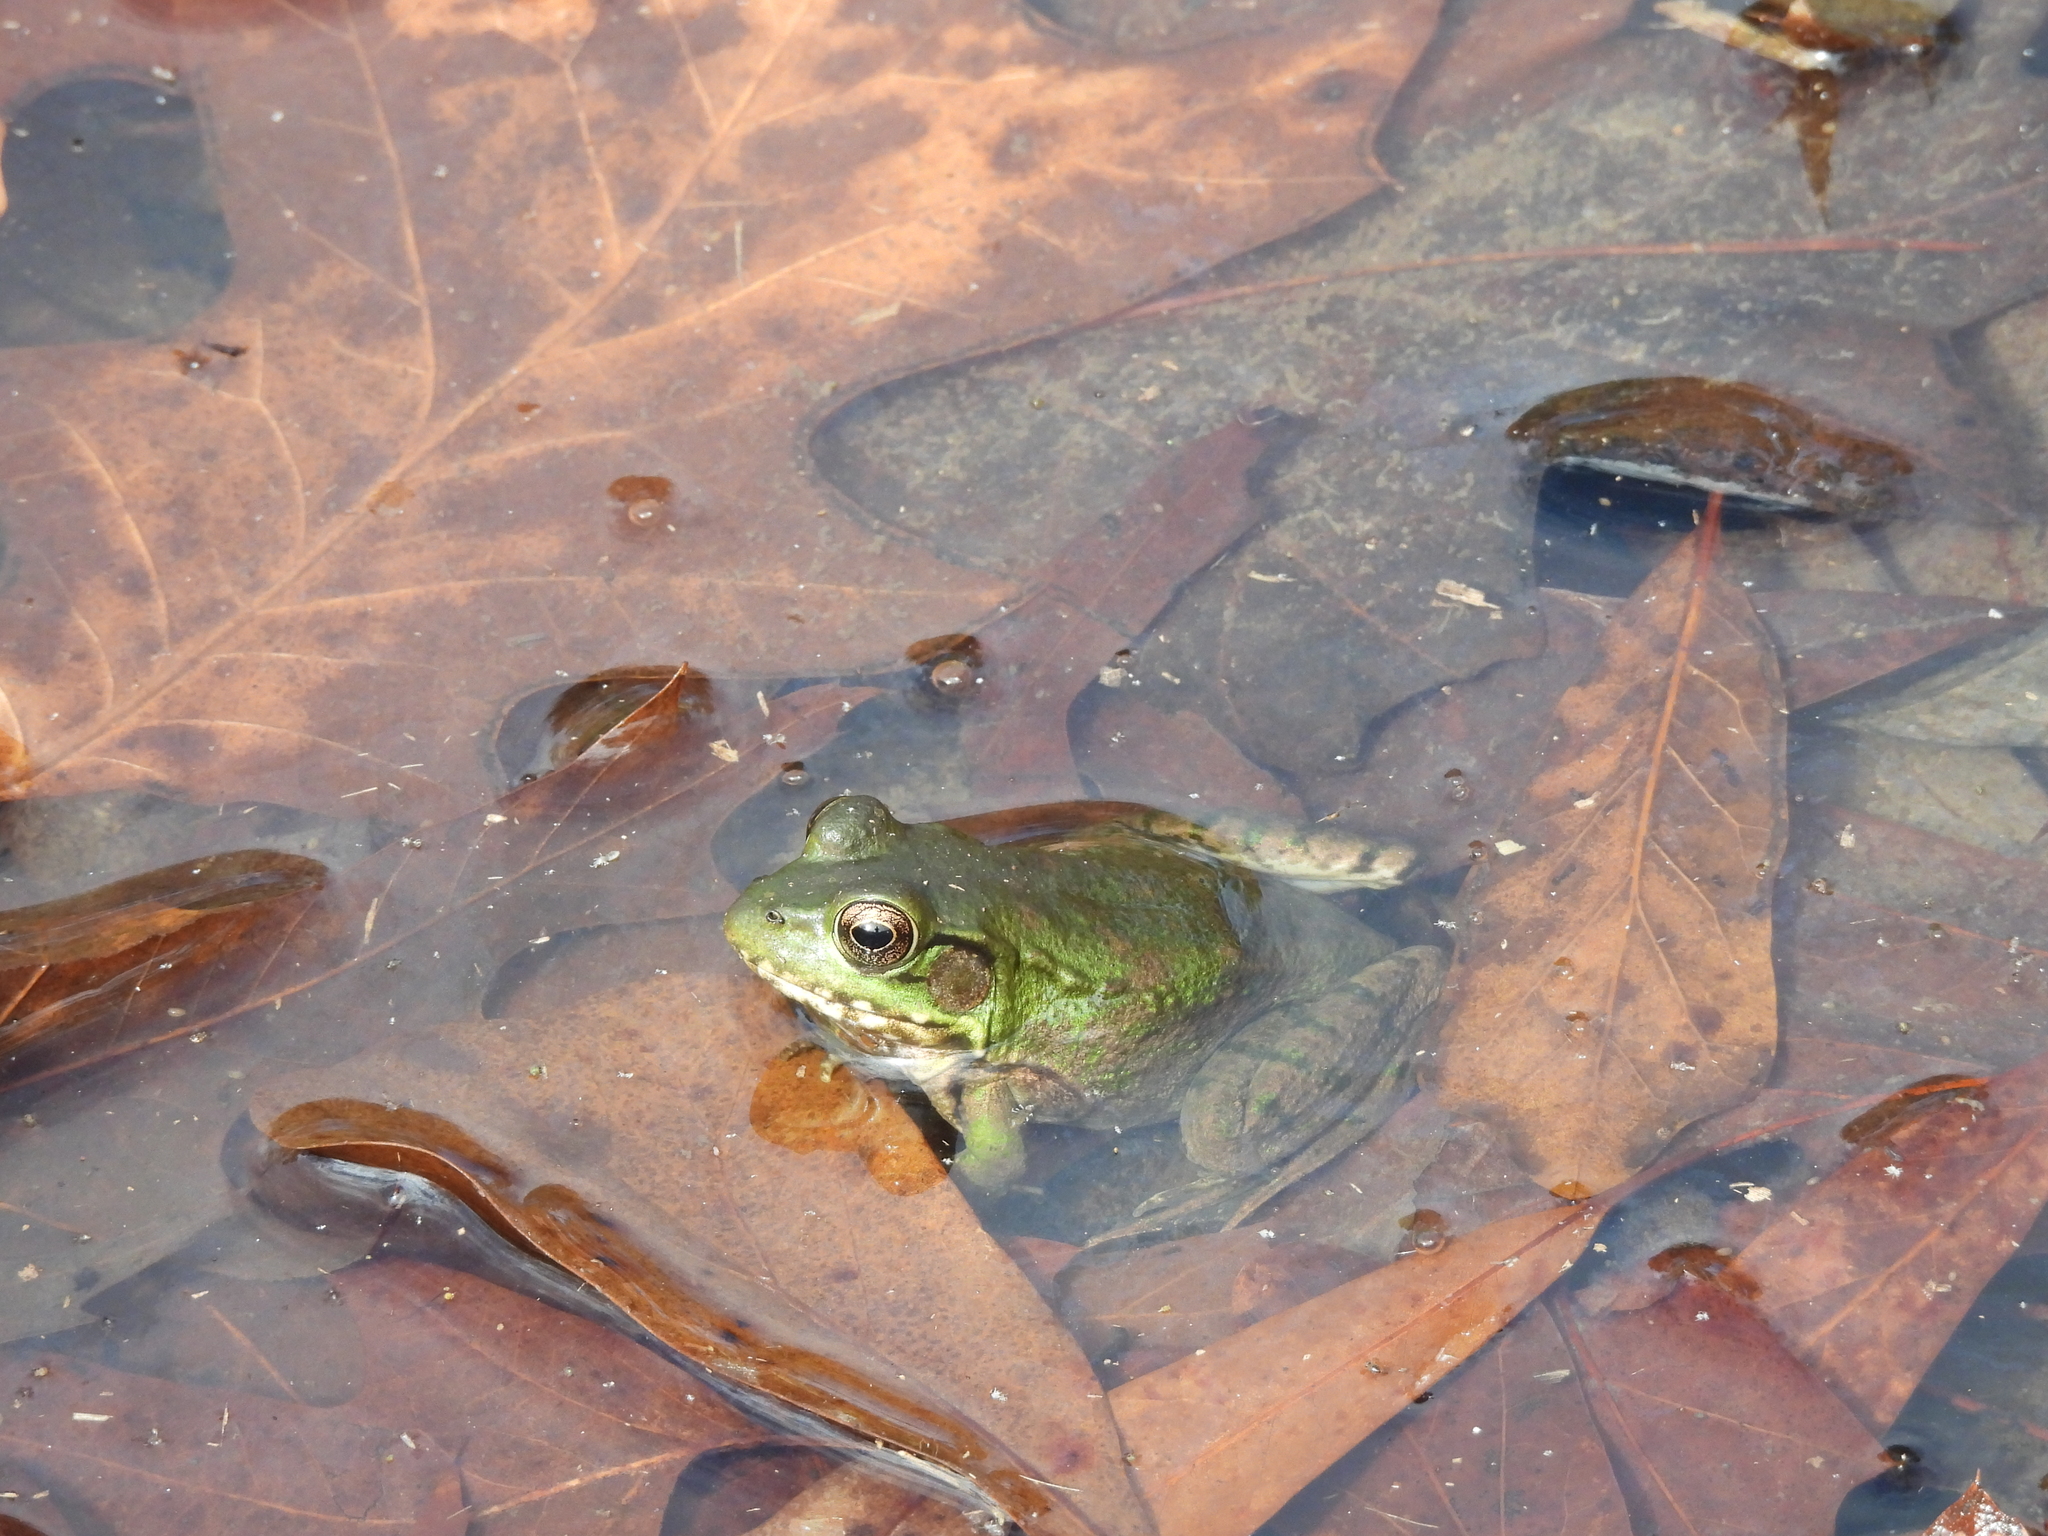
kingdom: Animalia
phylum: Chordata
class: Amphibia
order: Anura
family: Ranidae
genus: Lithobates
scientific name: Lithobates clamitans
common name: Green frog
